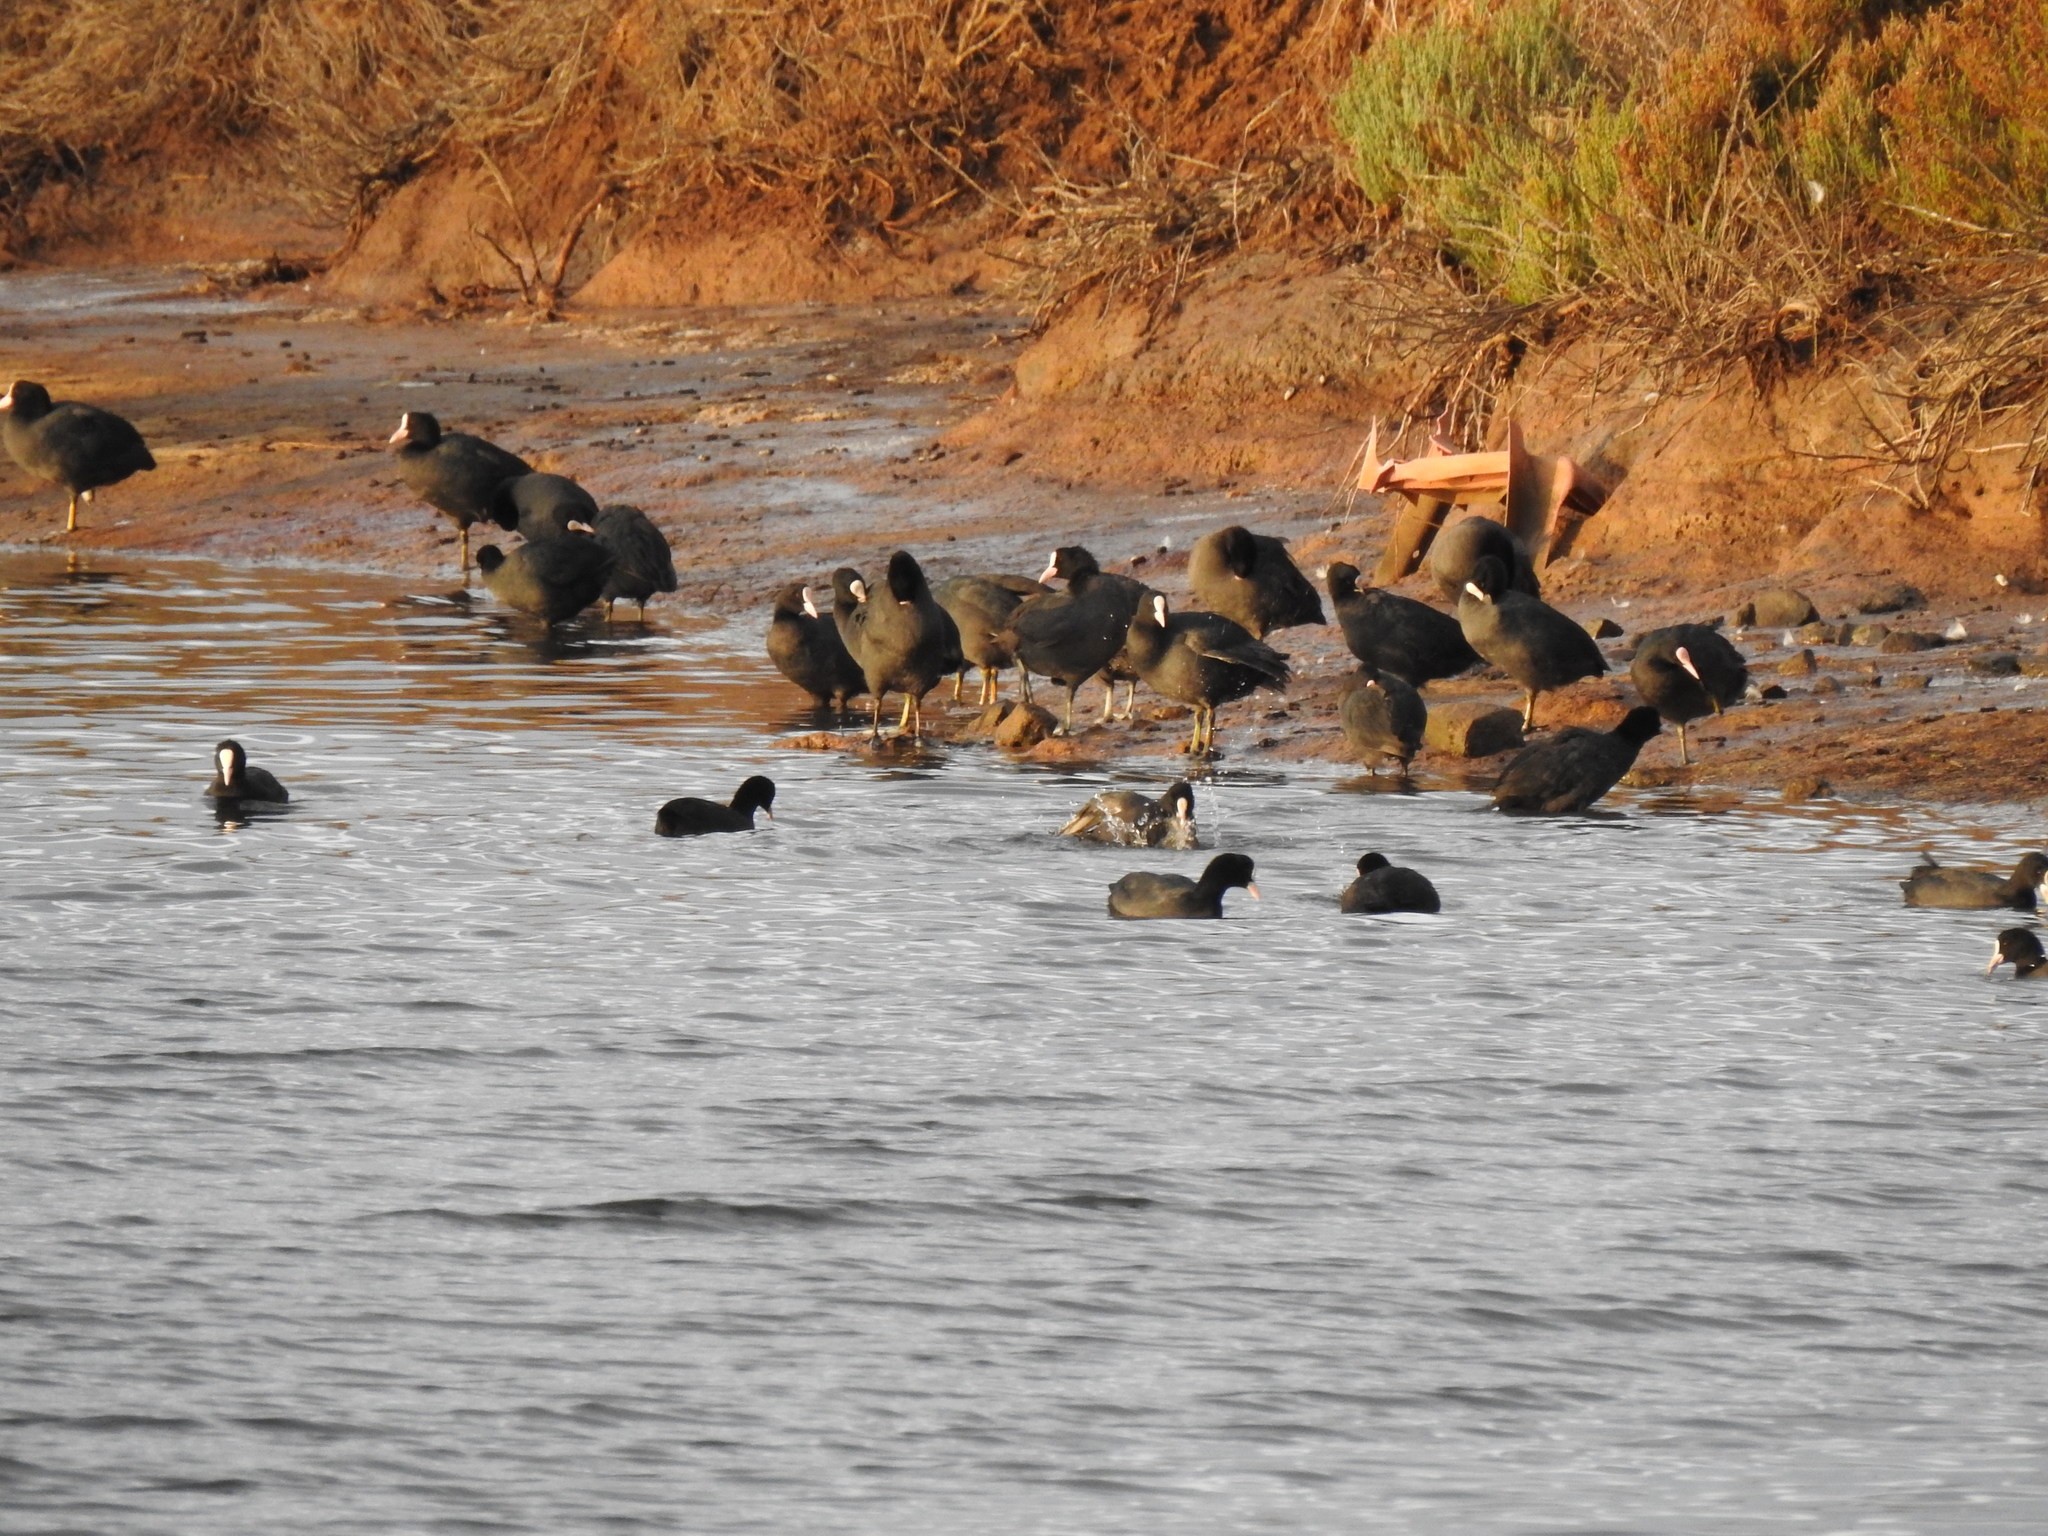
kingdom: Animalia
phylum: Chordata
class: Aves
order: Gruiformes
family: Rallidae
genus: Fulica
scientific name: Fulica atra
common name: Eurasian coot
